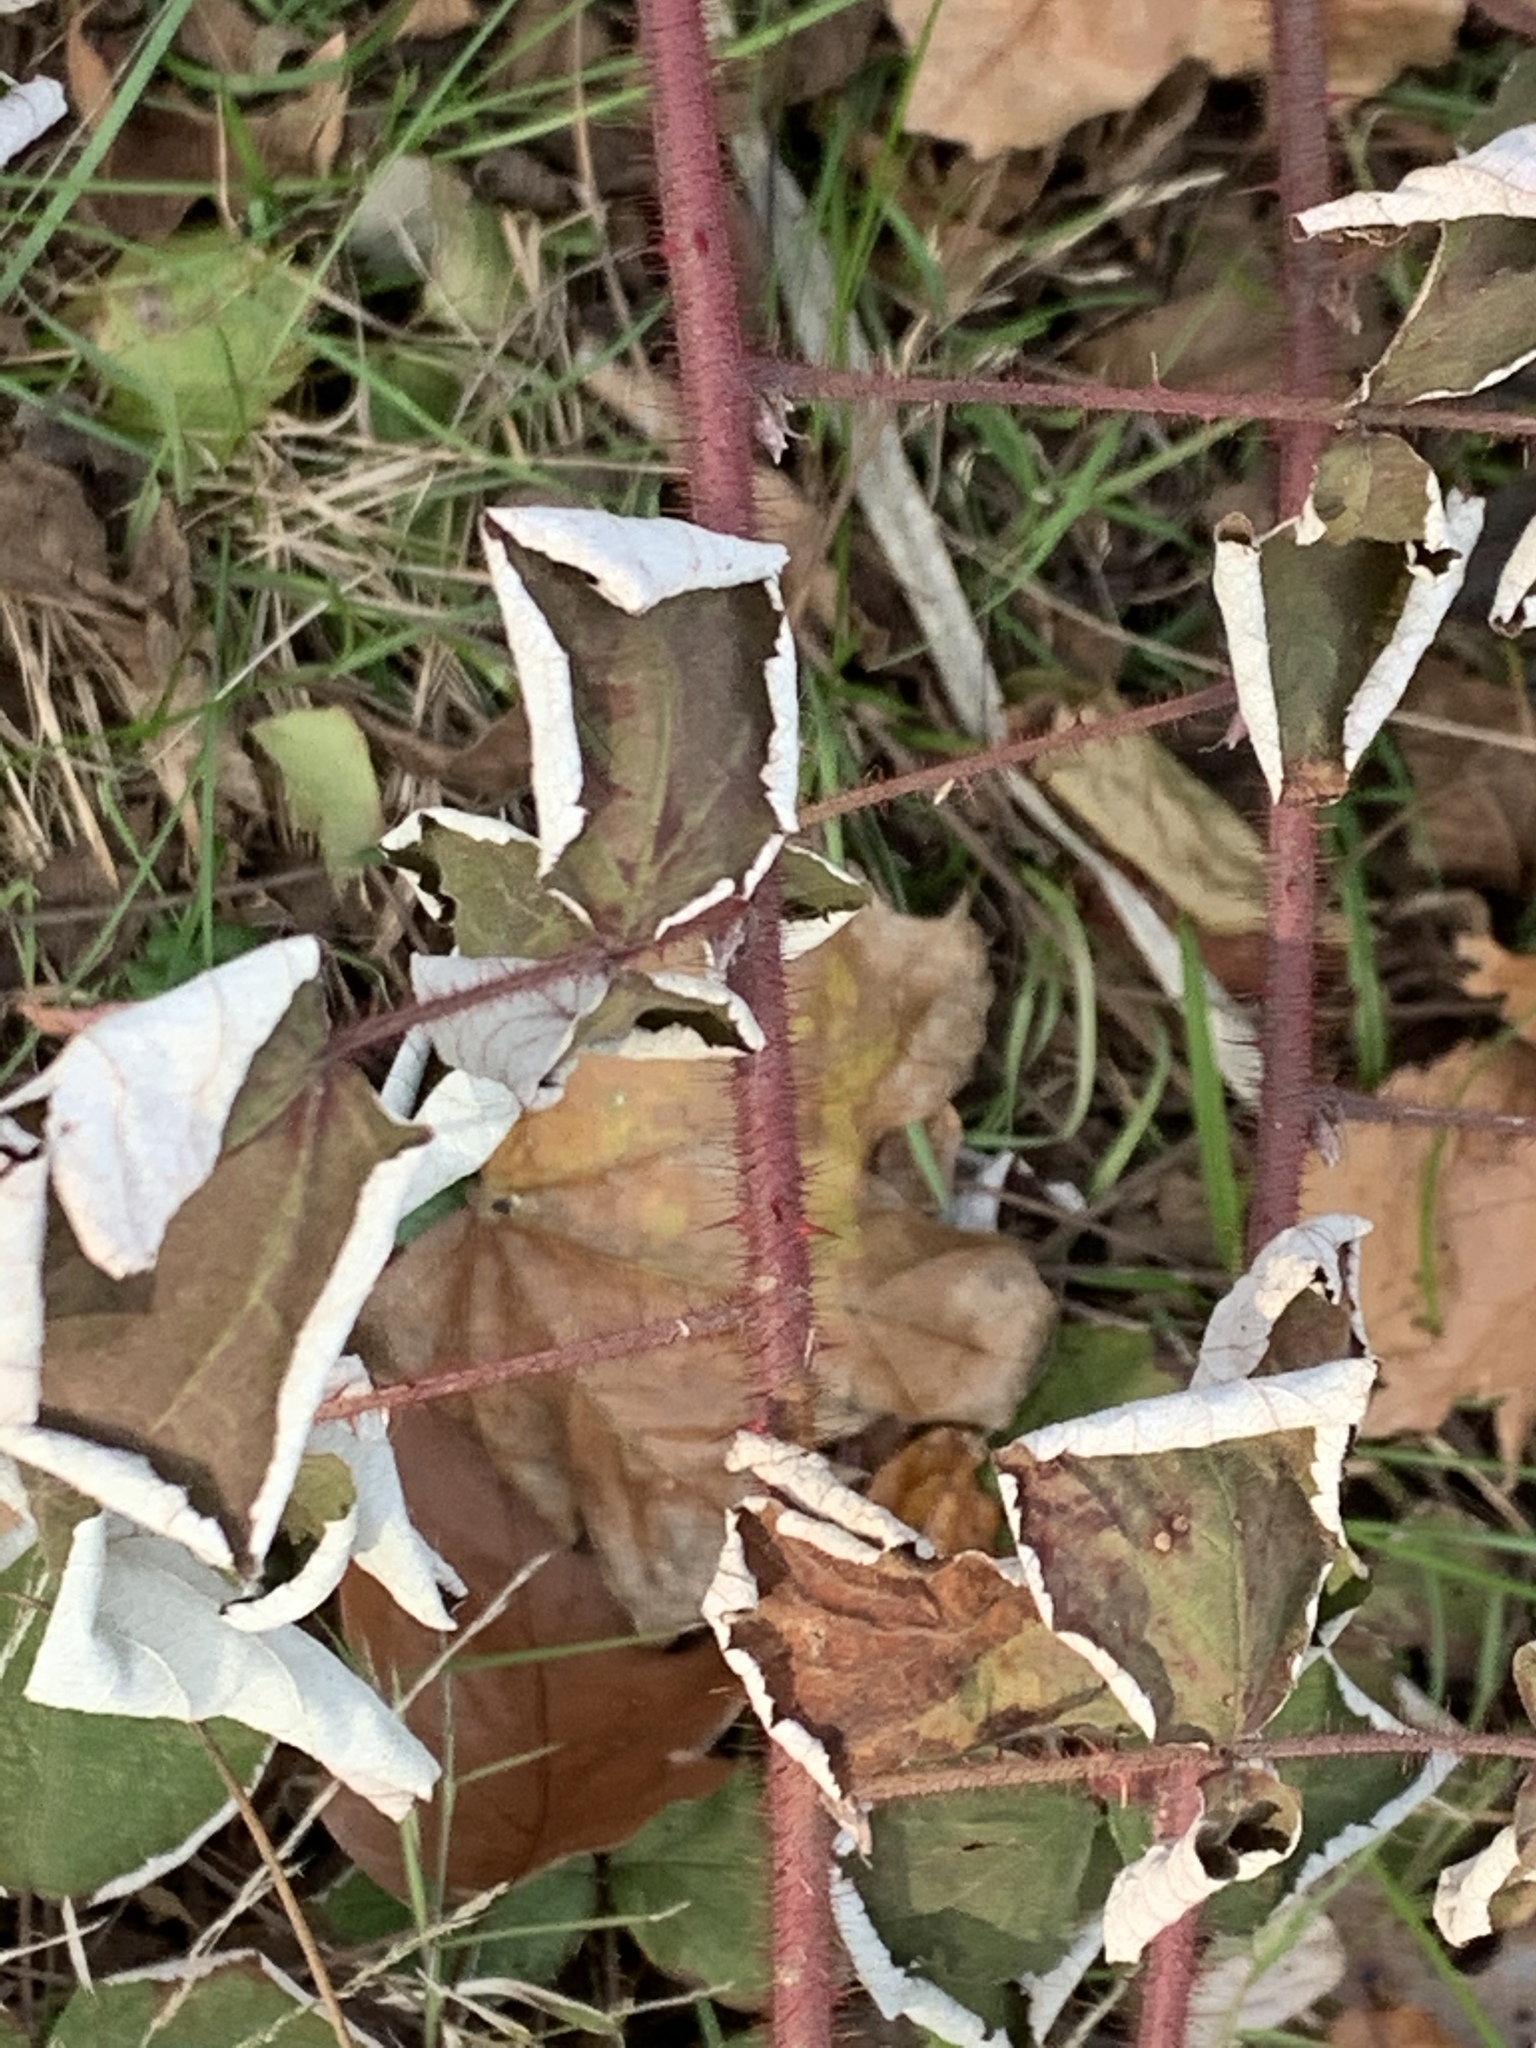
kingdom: Plantae
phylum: Tracheophyta
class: Magnoliopsida
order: Rosales
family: Rosaceae
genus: Rubus
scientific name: Rubus phoenicolasius
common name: Japanese wineberry
